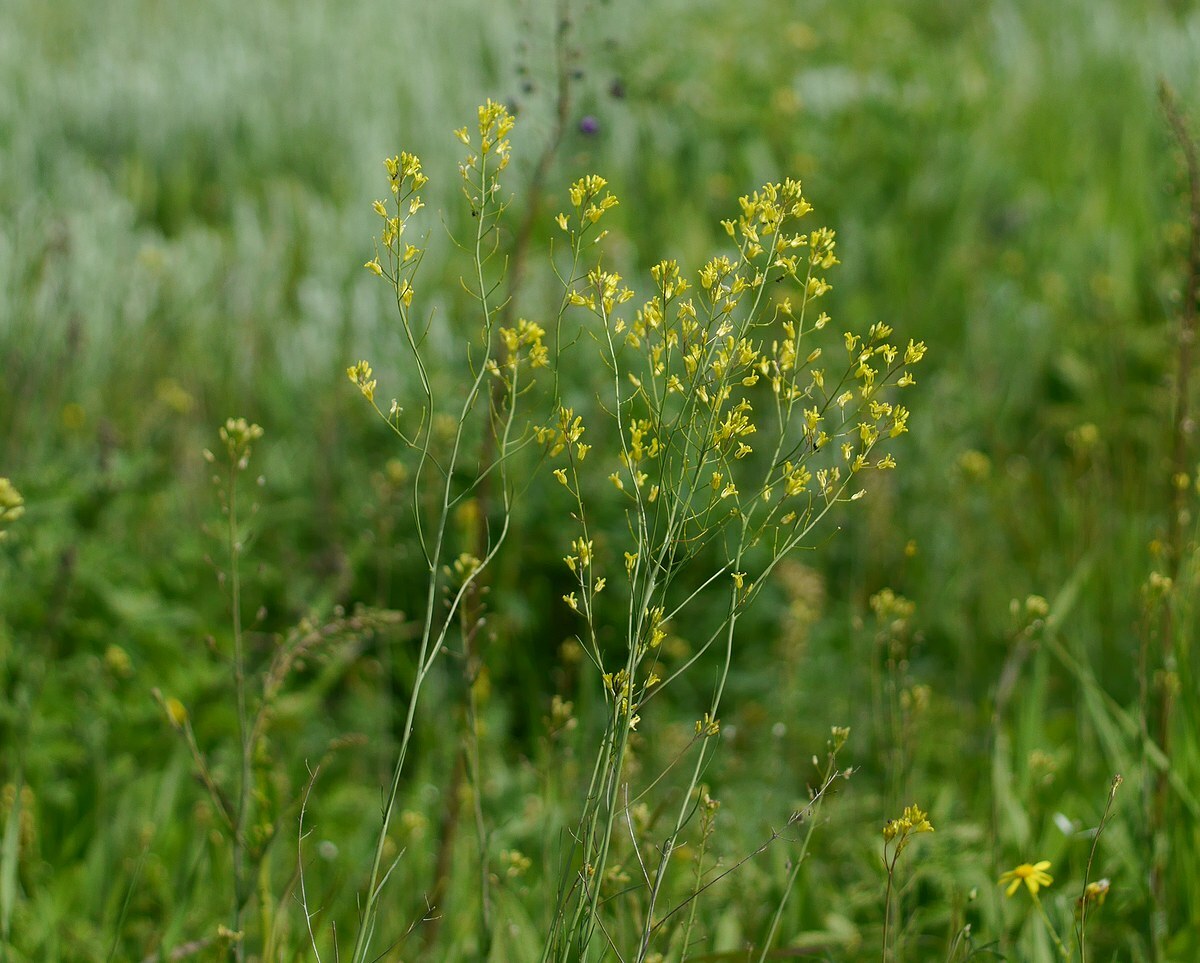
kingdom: Plantae
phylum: Tracheophyta
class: Magnoliopsida
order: Brassicales
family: Brassicaceae
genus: Sisymbrium
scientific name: Sisymbrium polymorphum
